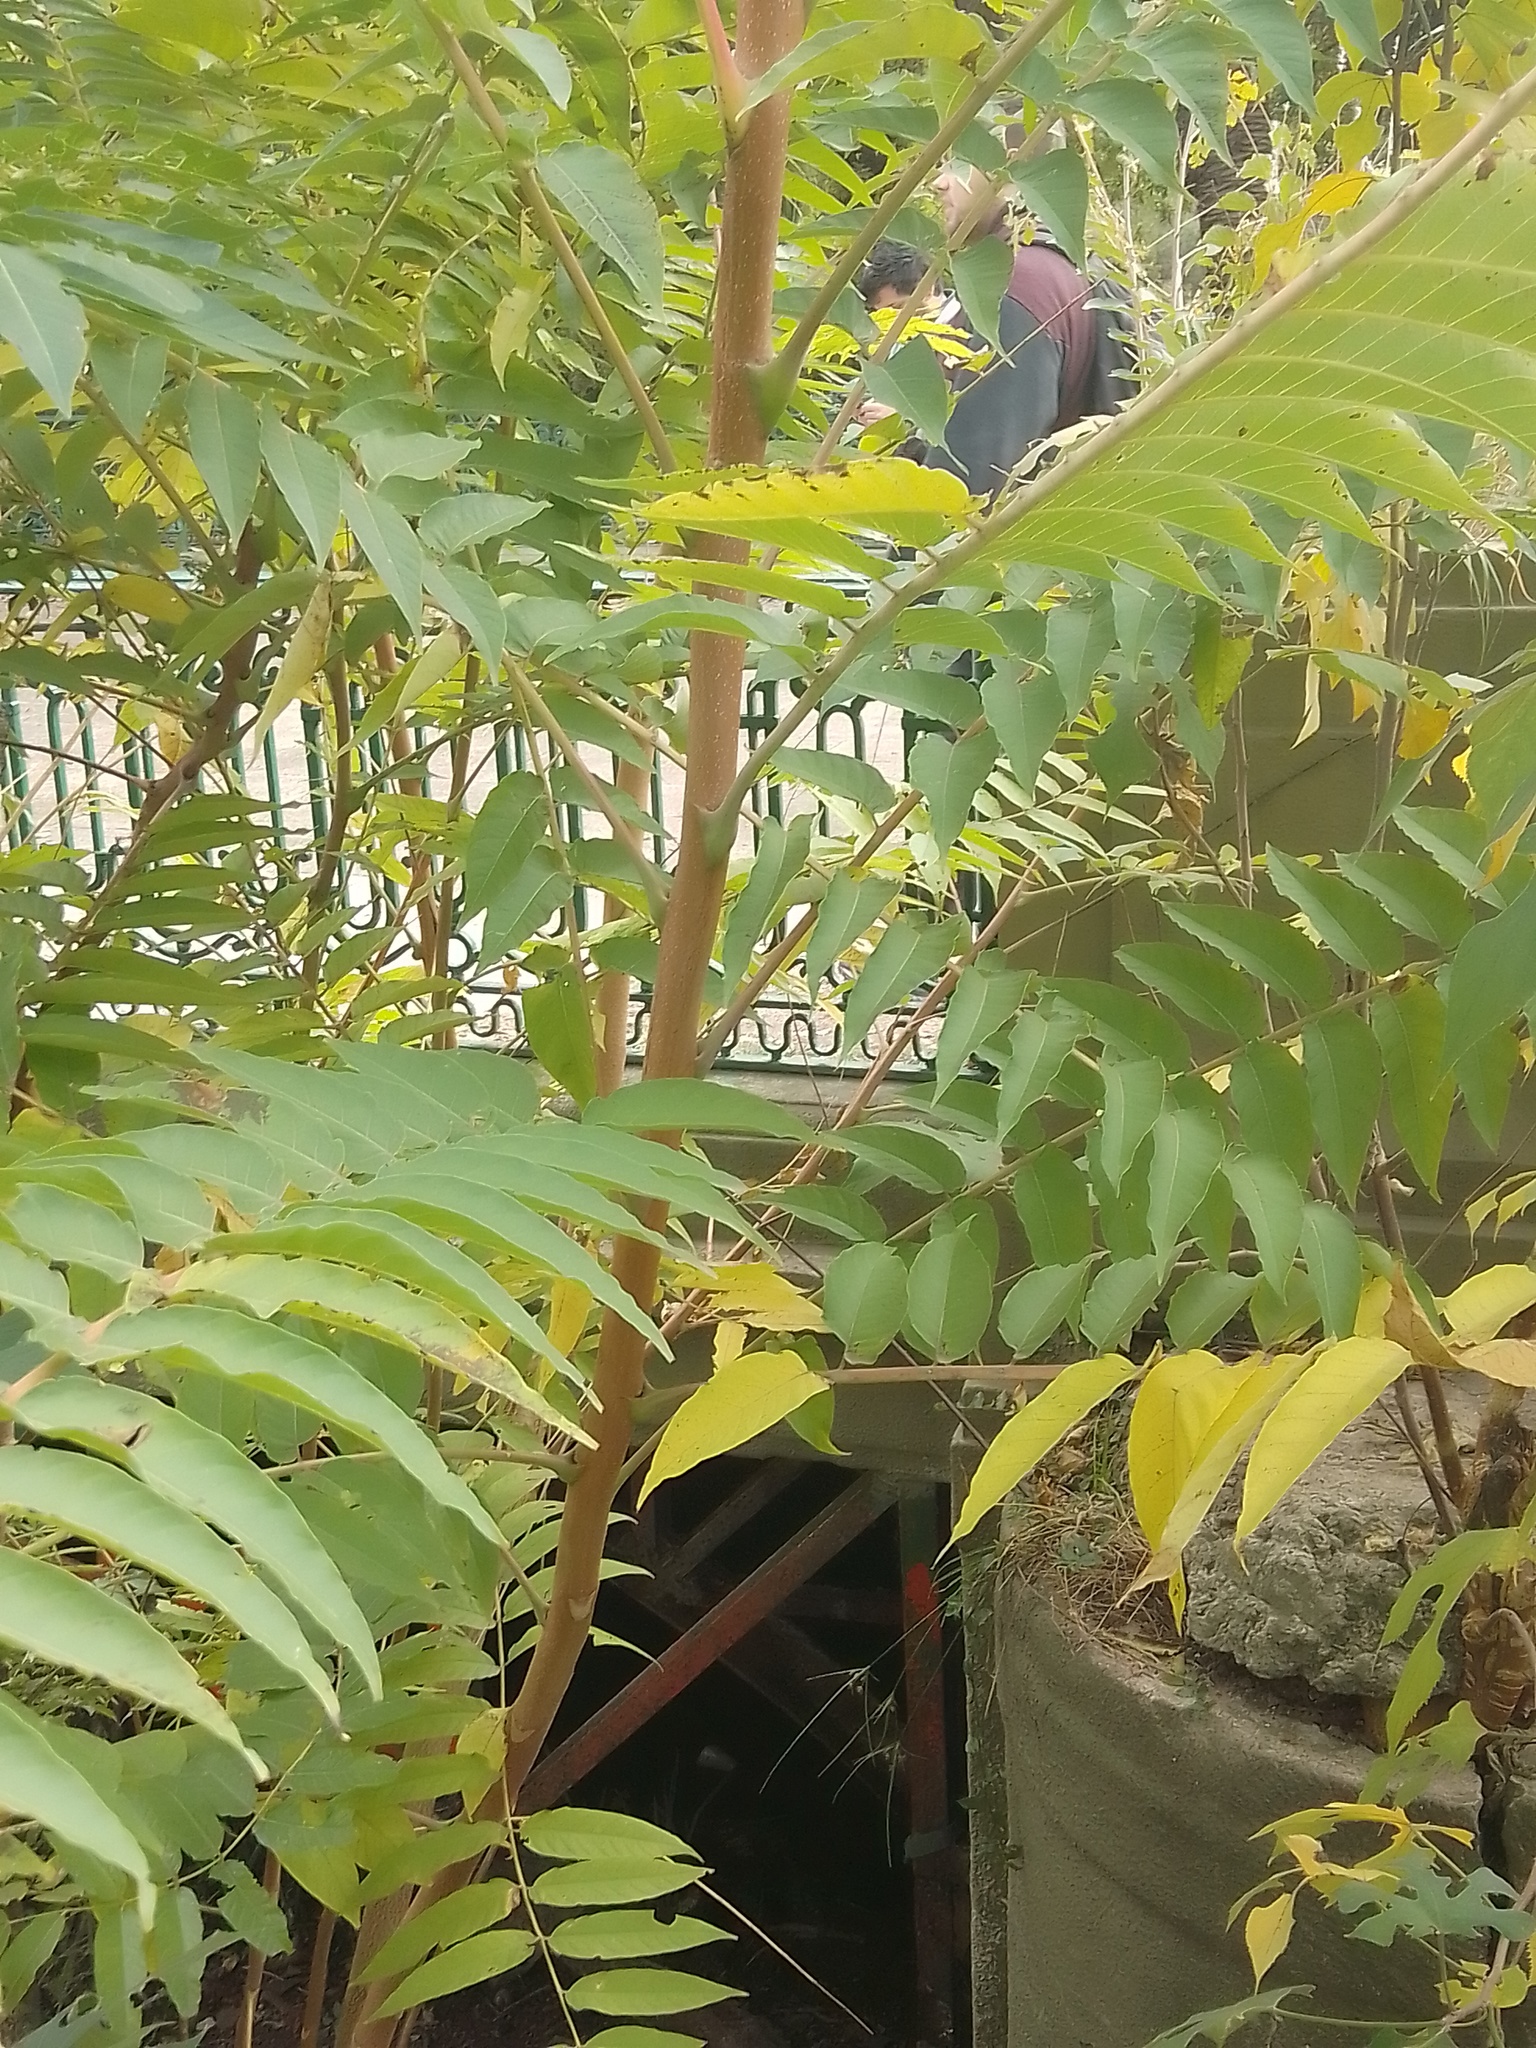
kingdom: Plantae
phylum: Tracheophyta
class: Magnoliopsida
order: Sapindales
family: Simaroubaceae
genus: Ailanthus
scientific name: Ailanthus altissima
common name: Tree-of-heaven
